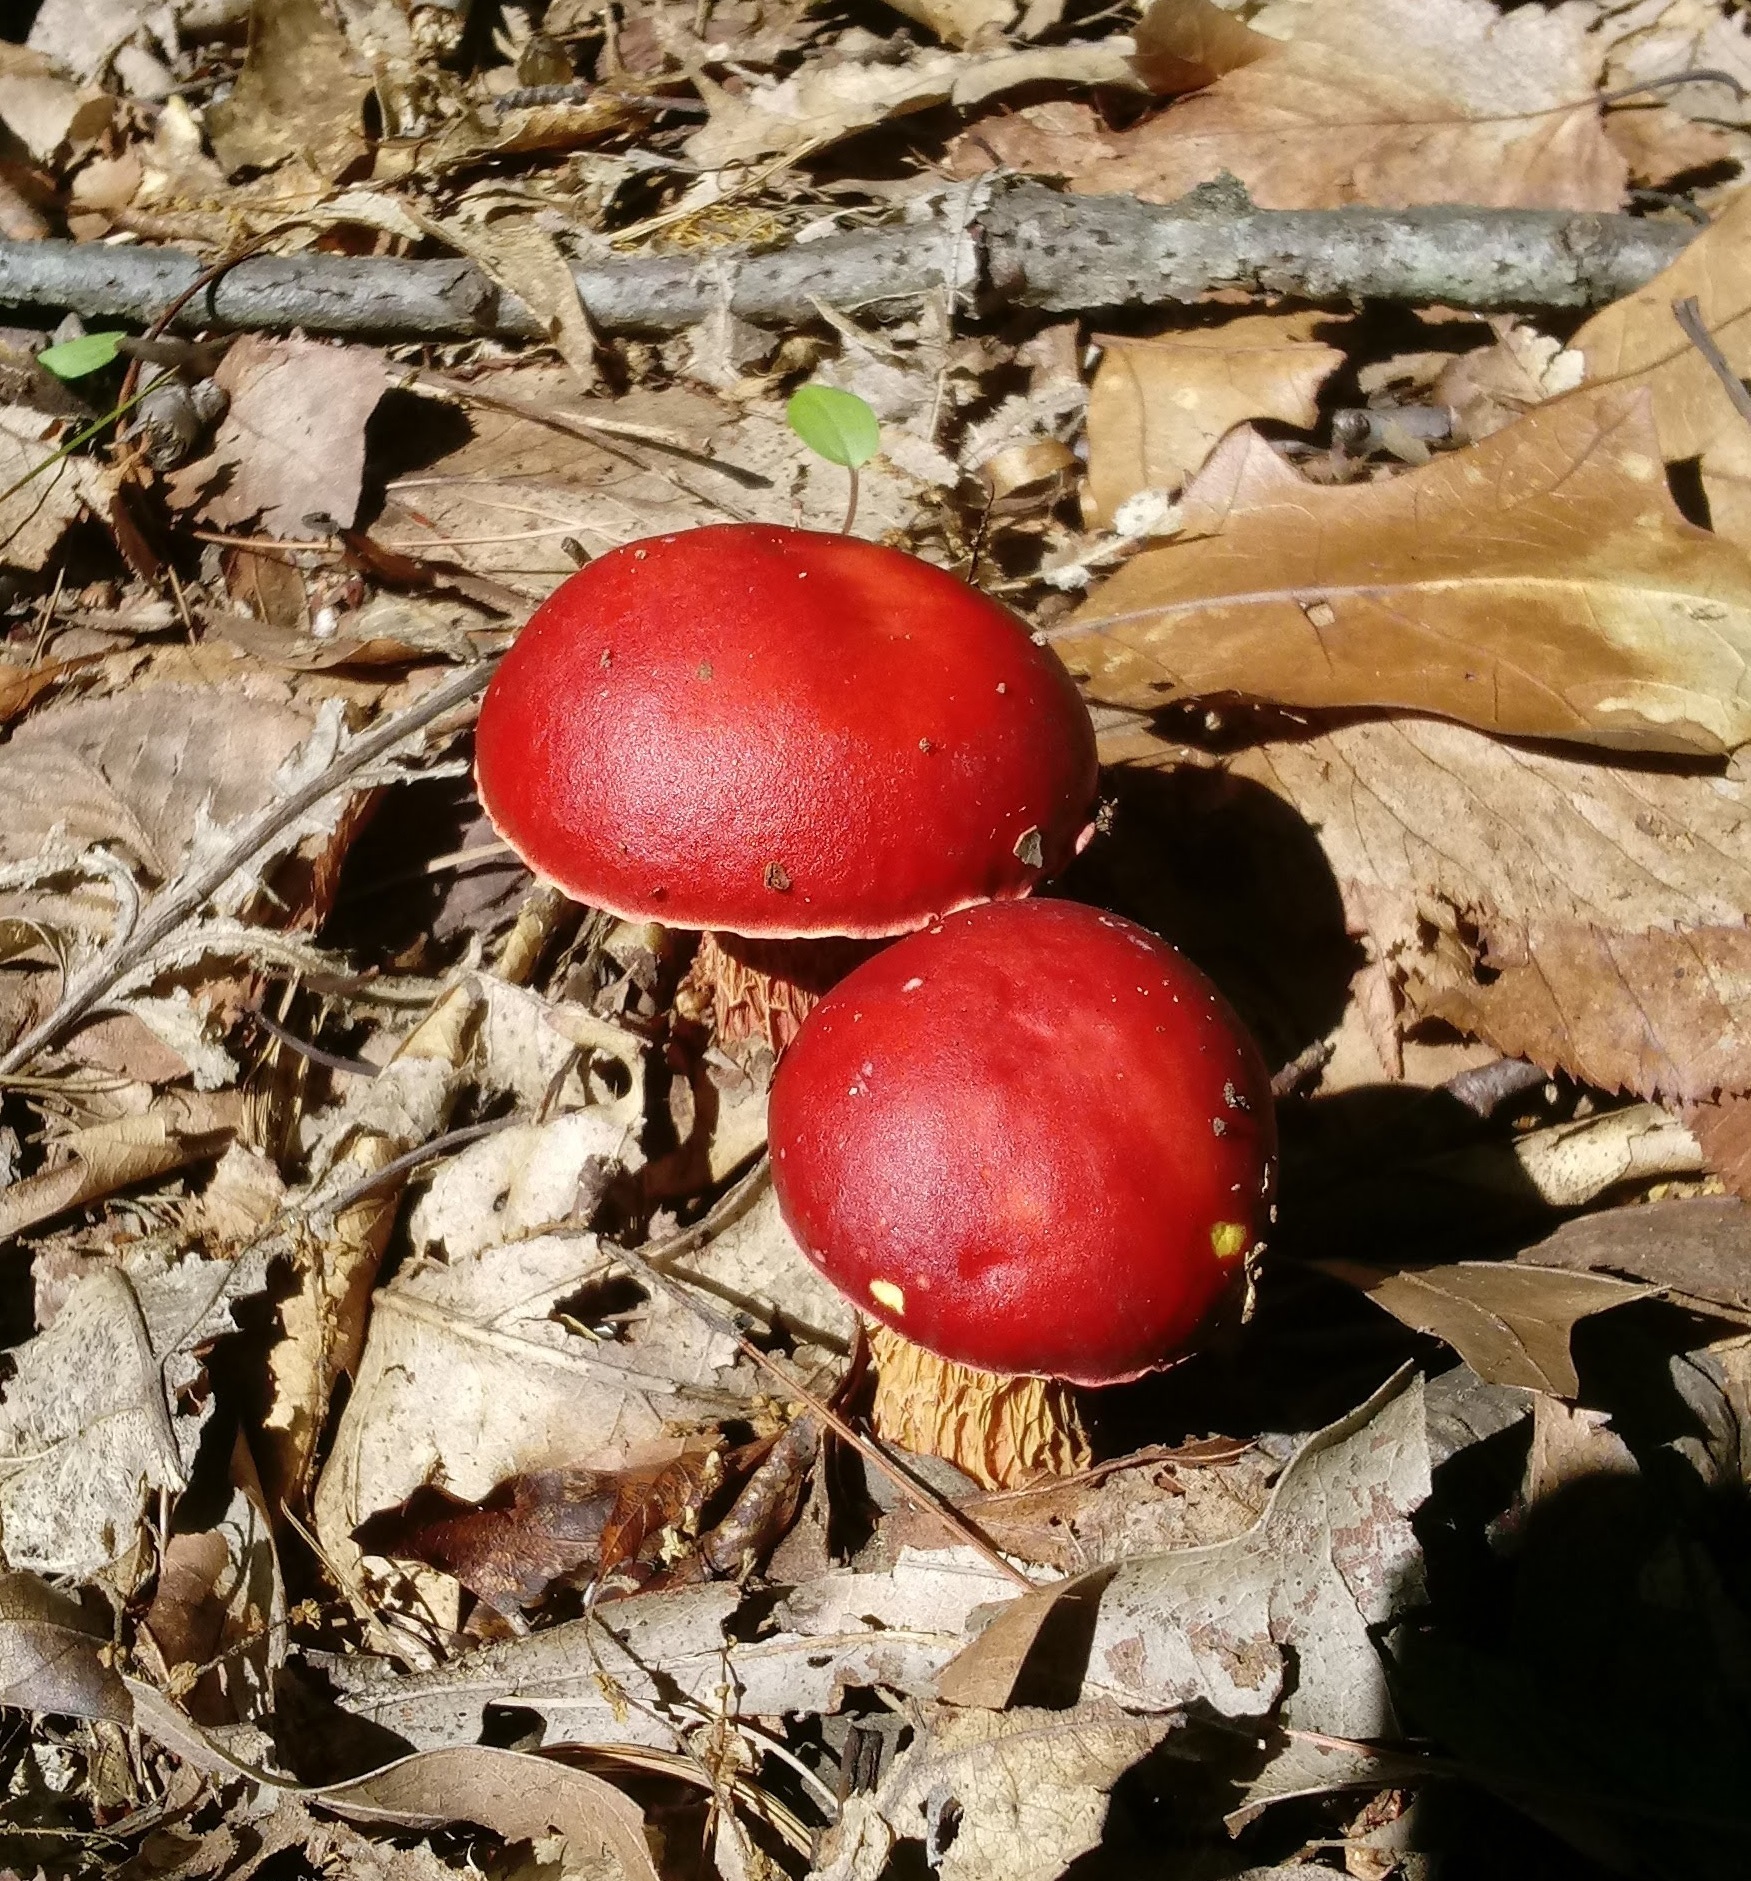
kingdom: Fungi
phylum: Basidiomycota
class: Agaricomycetes
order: Boletales
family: Boletaceae
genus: Butyriboletus
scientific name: Butyriboletus frostii
